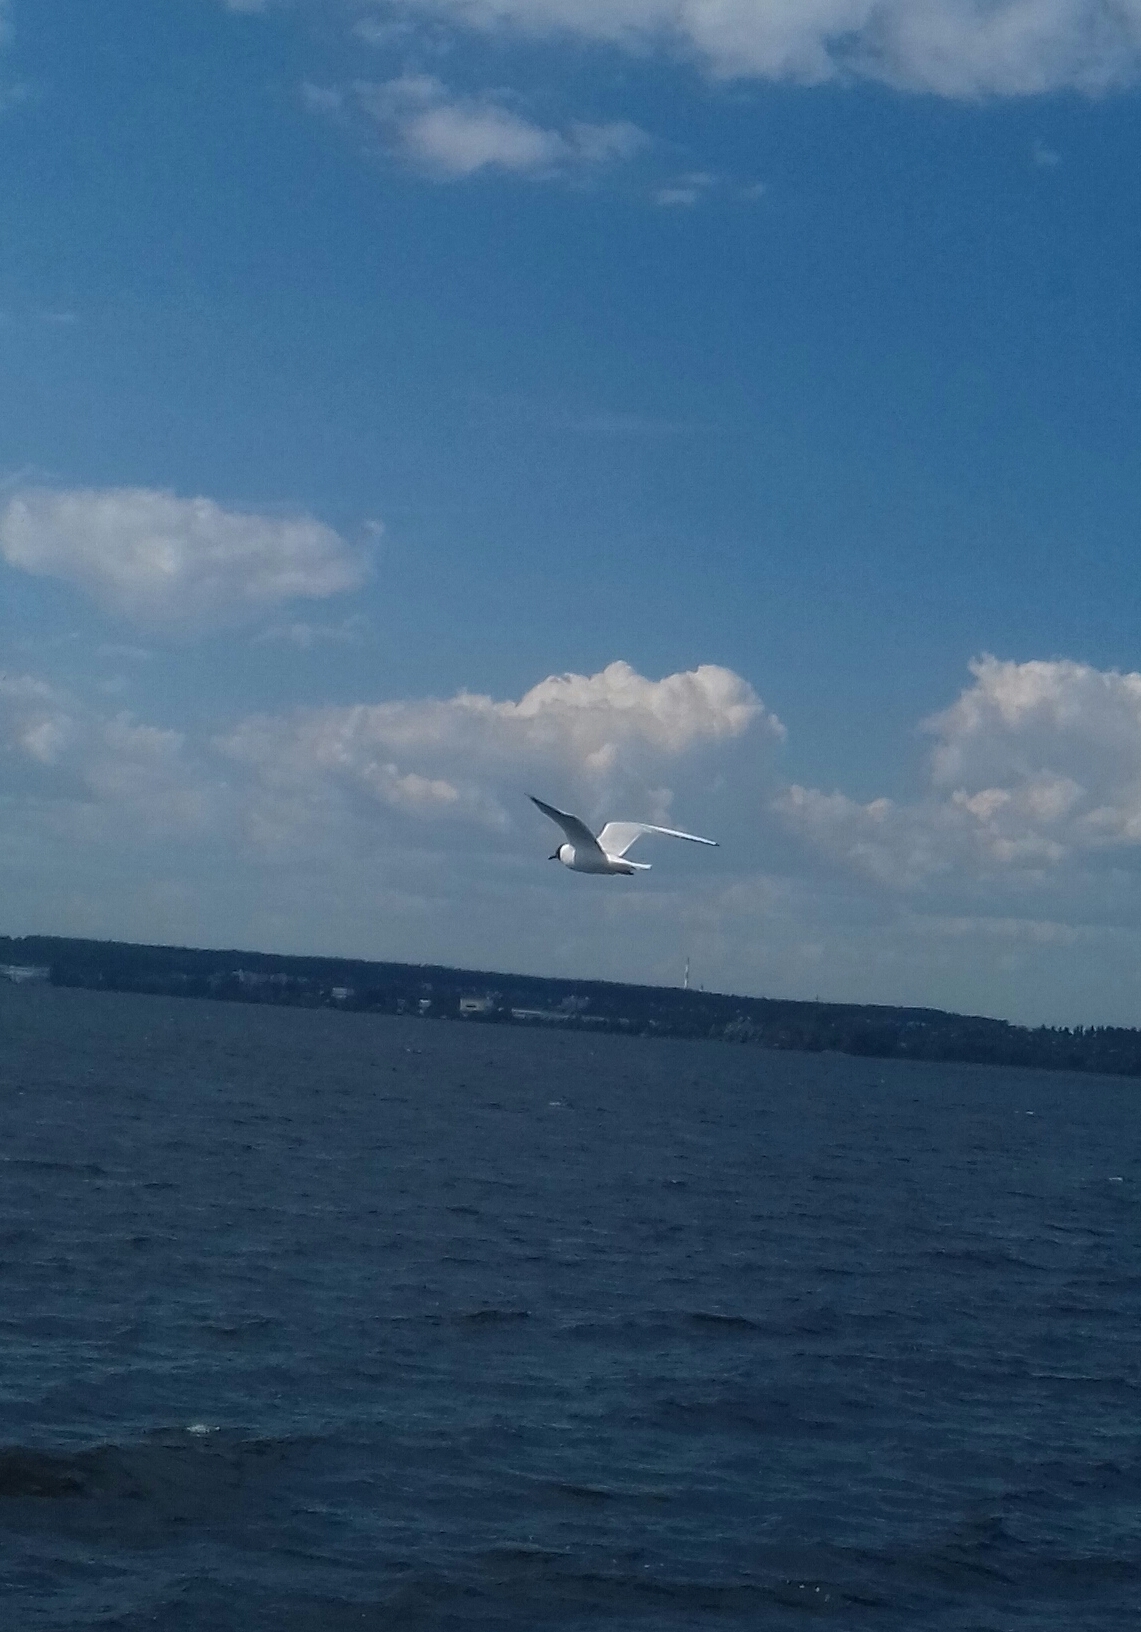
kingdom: Animalia
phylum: Chordata
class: Aves
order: Charadriiformes
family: Laridae
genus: Chroicocephalus
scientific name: Chroicocephalus ridibundus
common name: Black-headed gull
